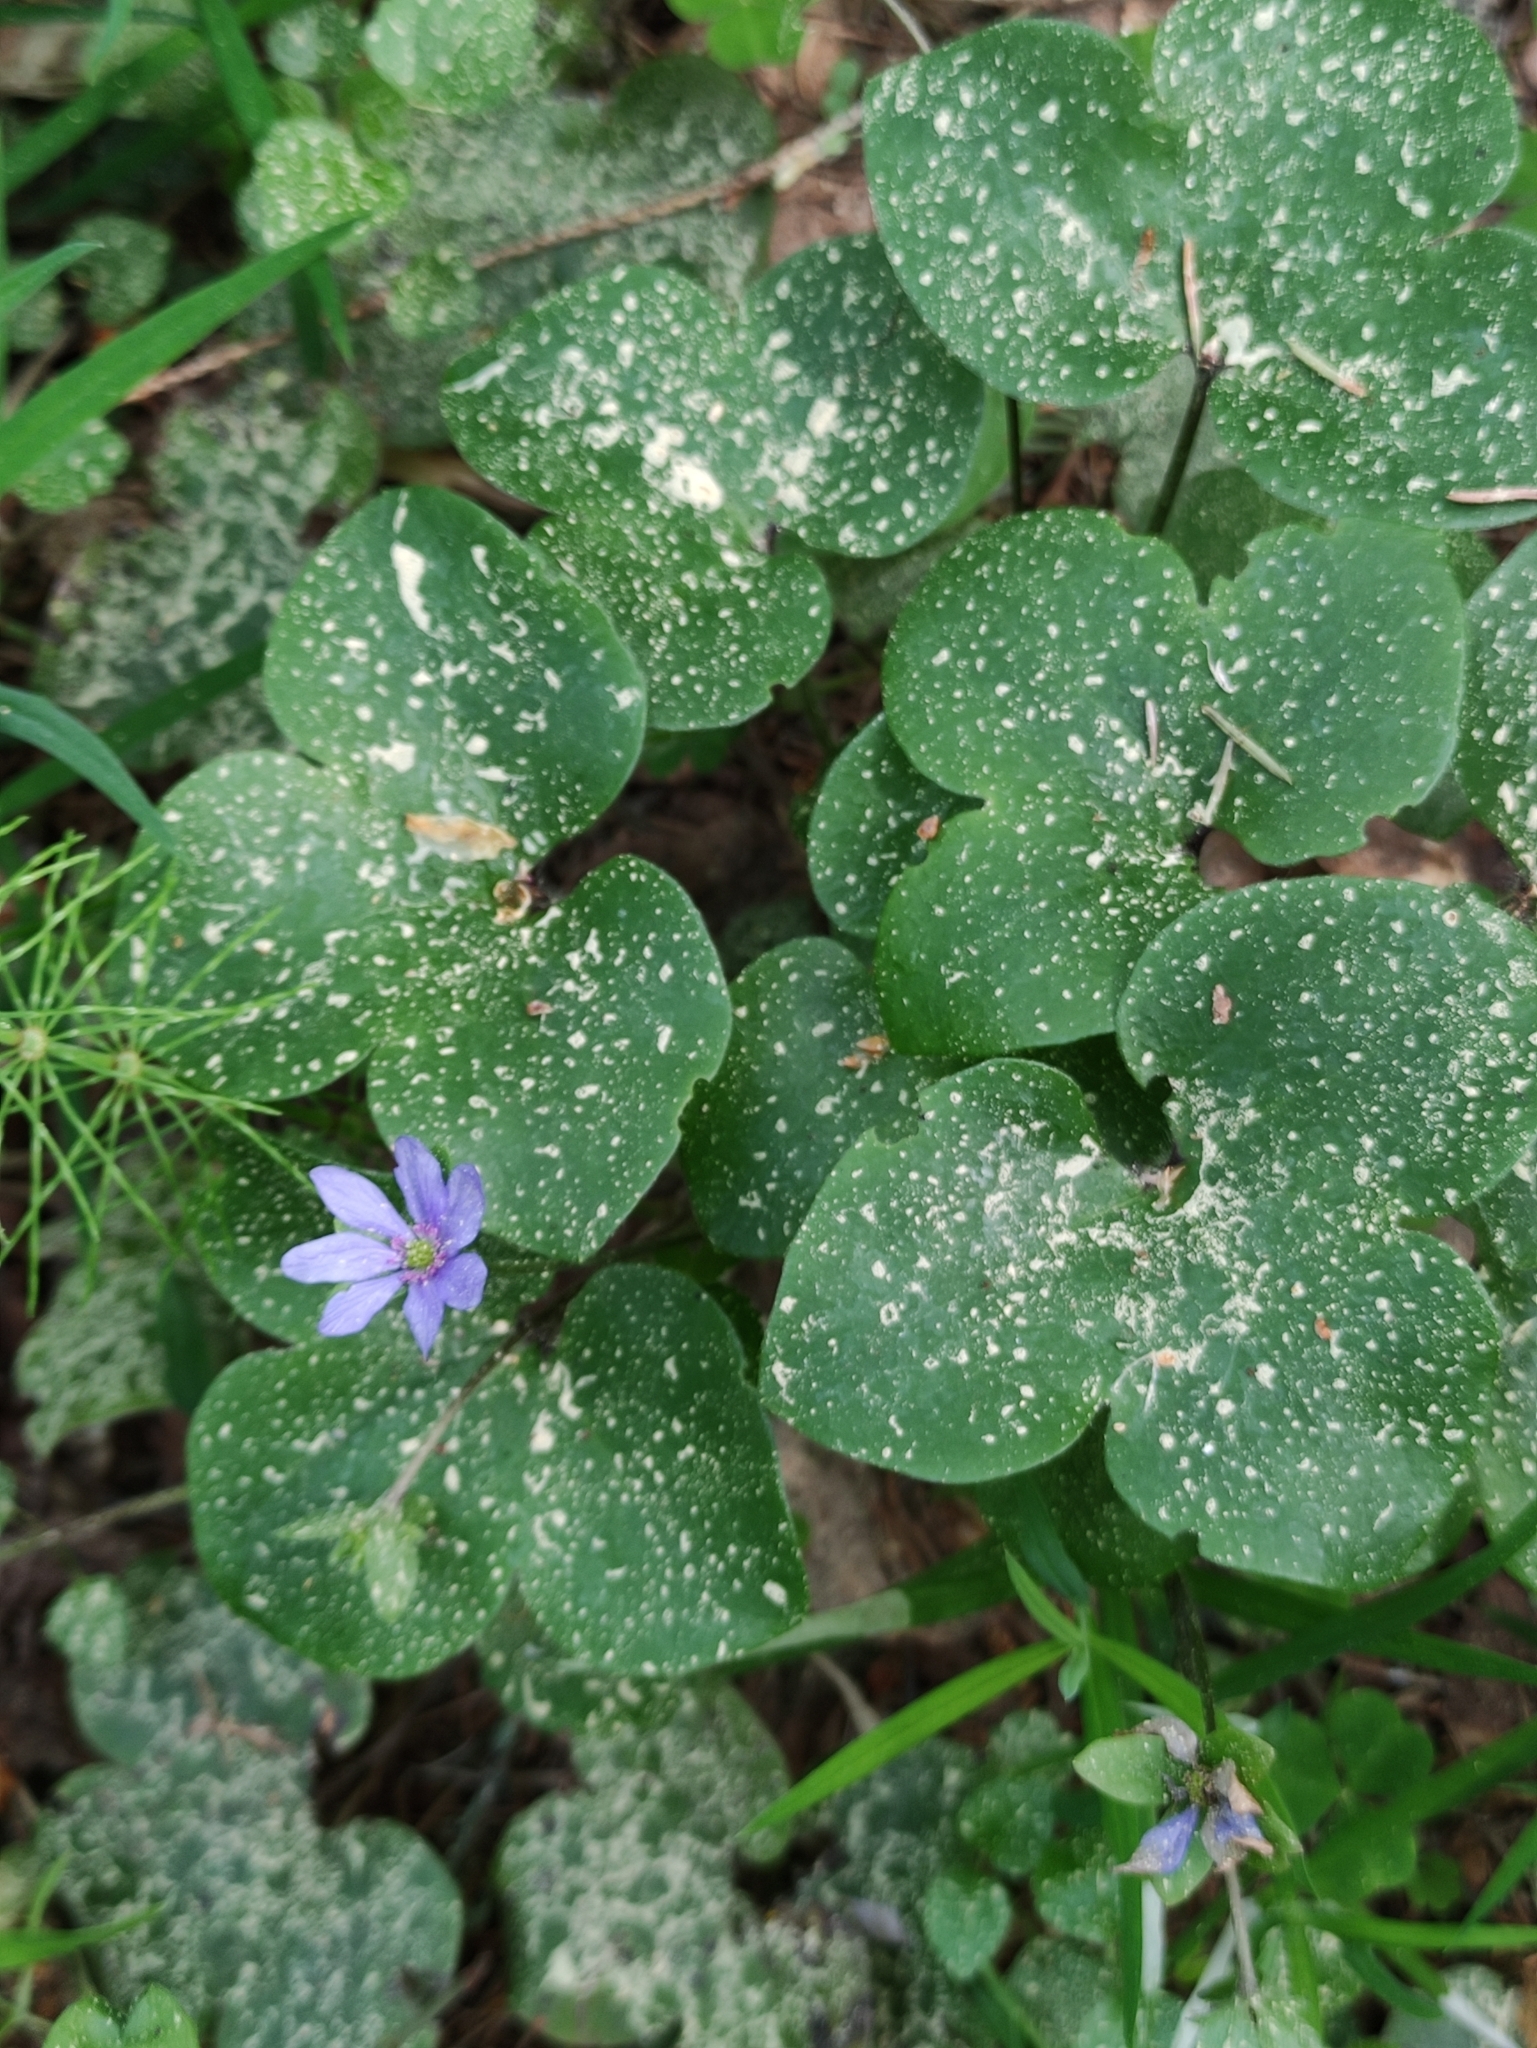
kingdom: Plantae
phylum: Tracheophyta
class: Magnoliopsida
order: Ranunculales
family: Ranunculaceae
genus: Hepatica
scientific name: Hepatica nobilis
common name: Liverleaf
